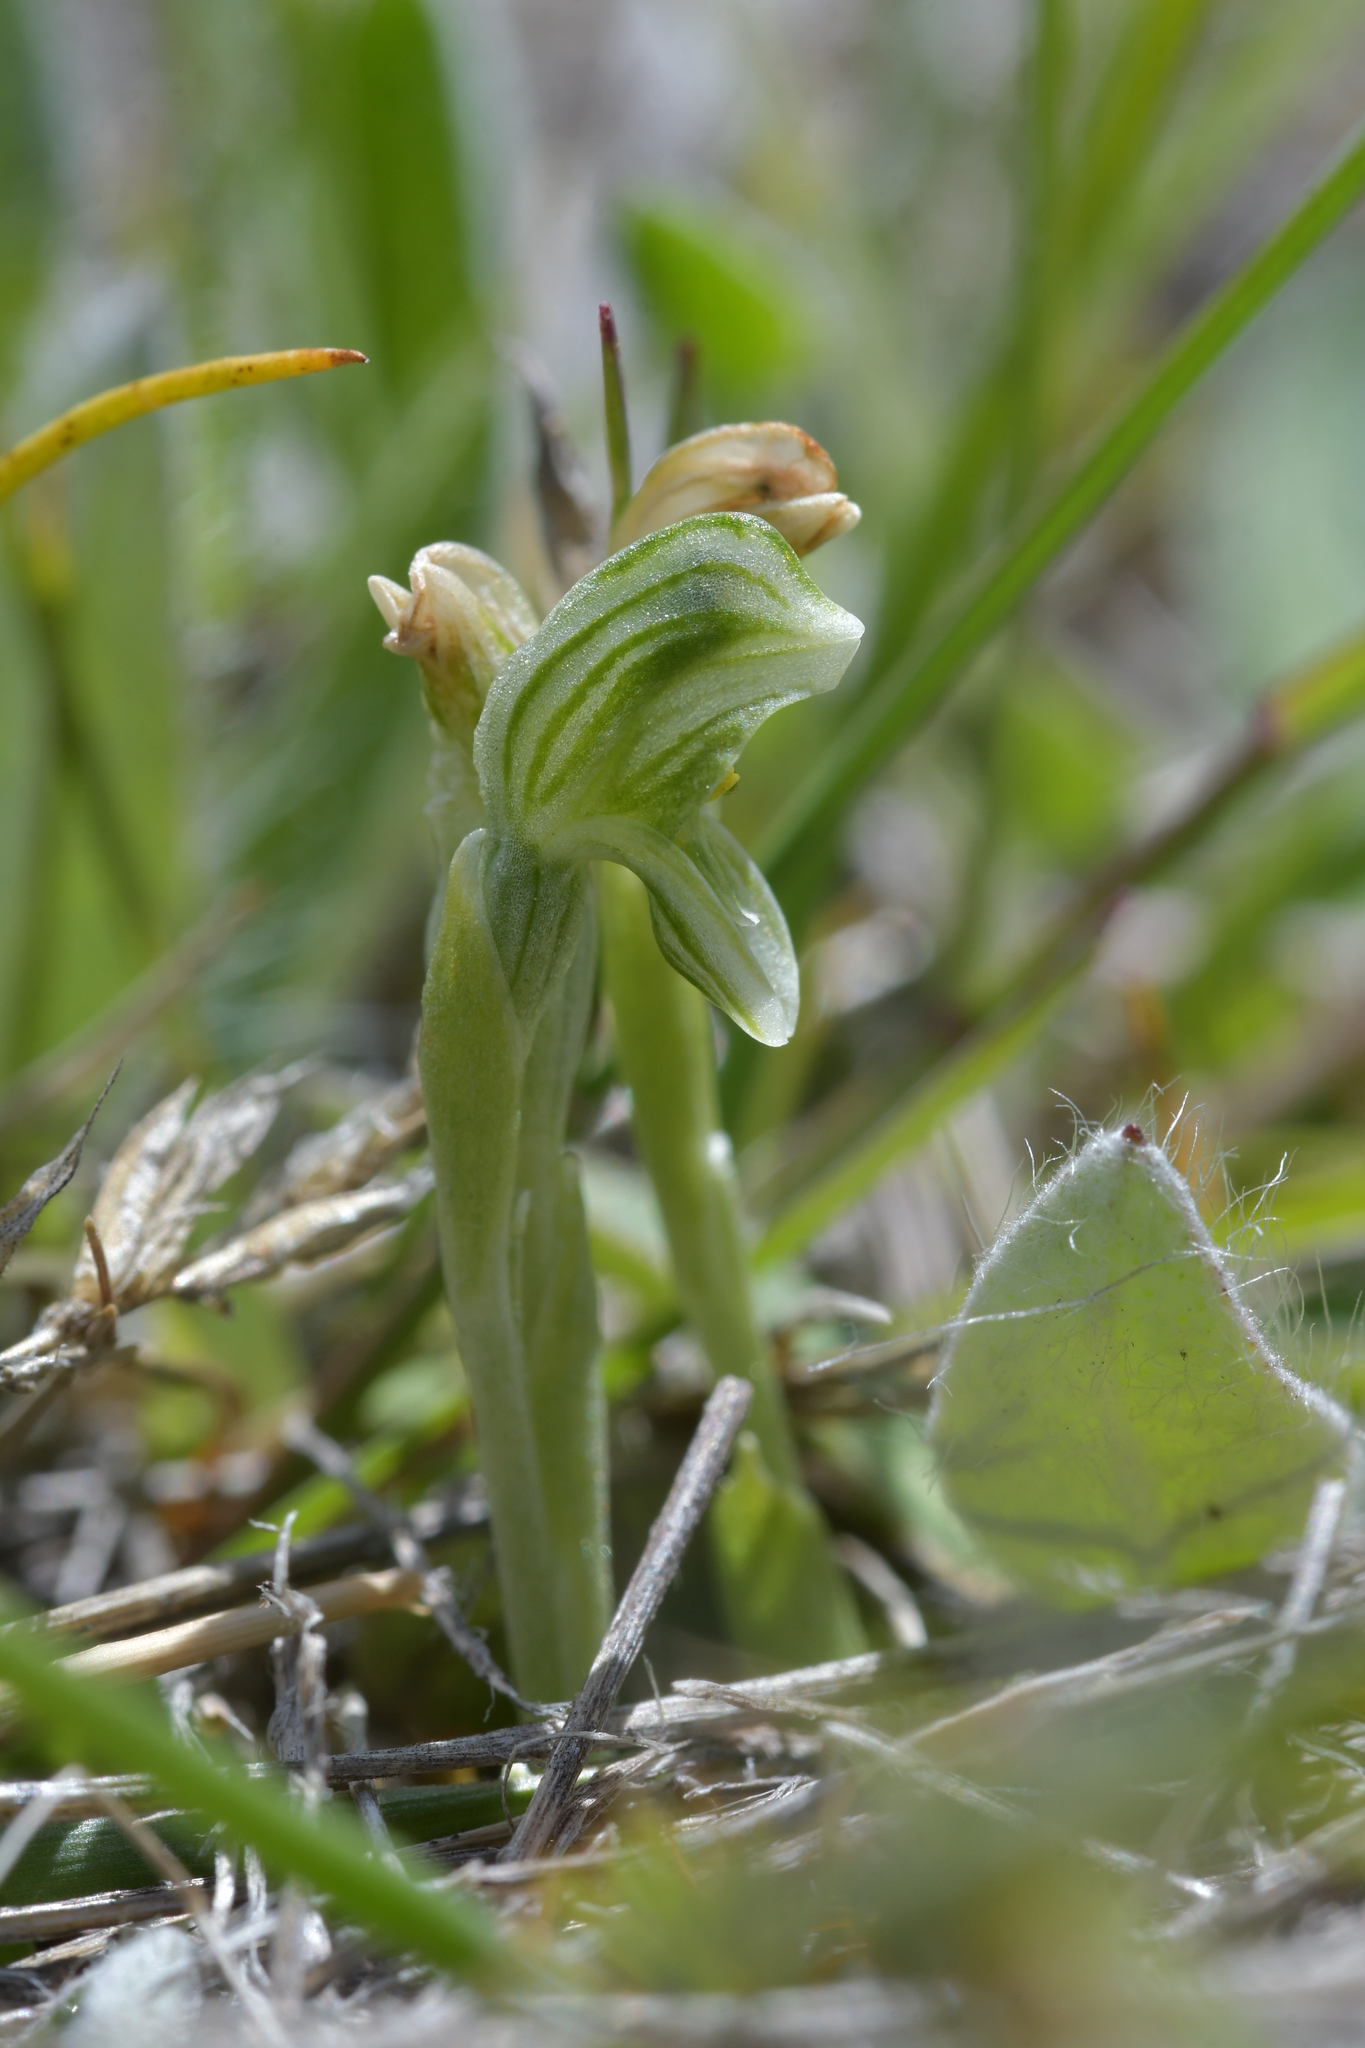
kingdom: Plantae
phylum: Tracheophyta
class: Liliopsida
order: Asparagales
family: Orchidaceae
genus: Pterostylis
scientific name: Pterostylis tanypoda
